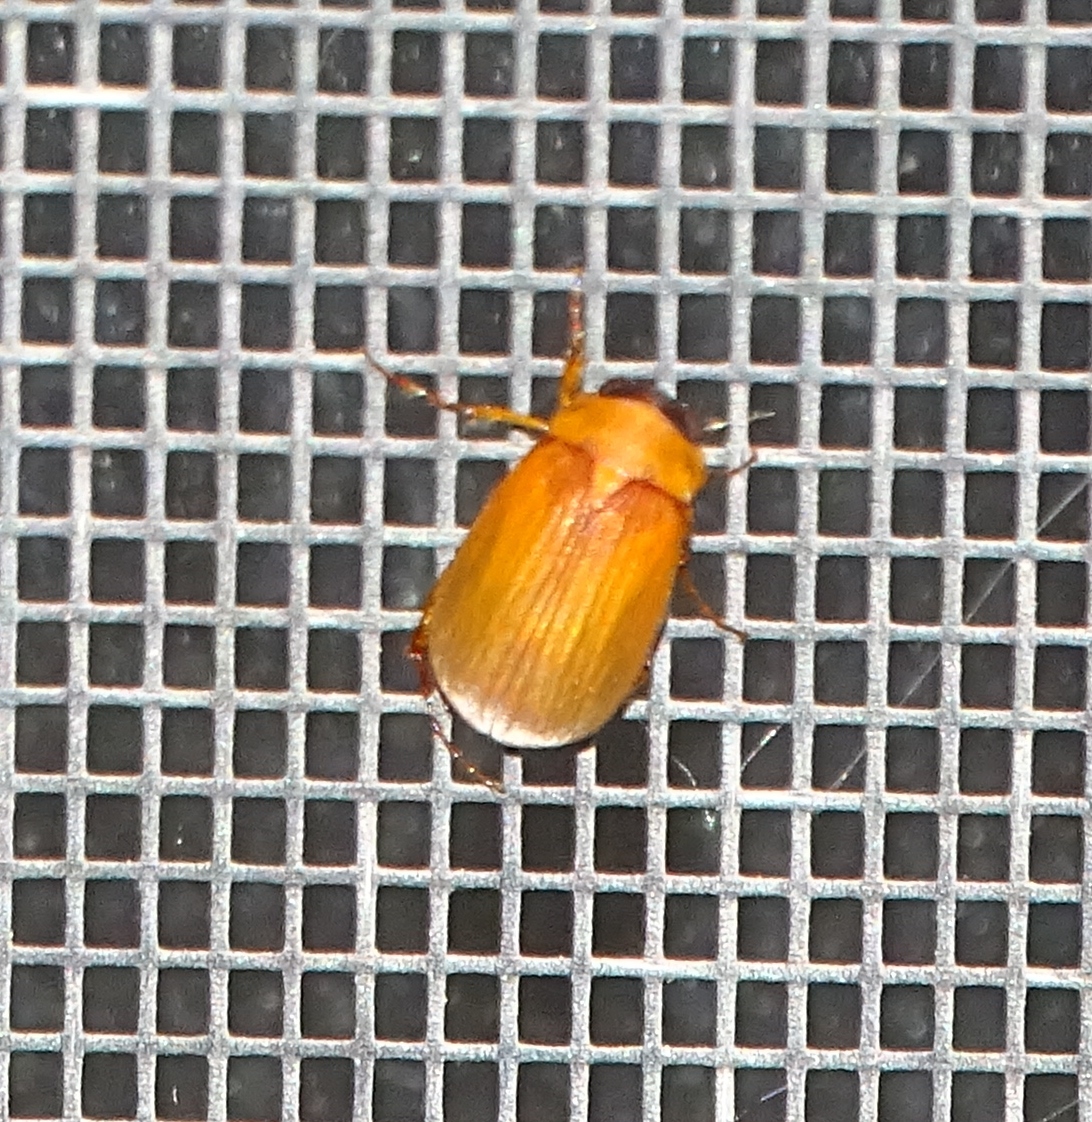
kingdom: Animalia
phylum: Arthropoda
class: Insecta
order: Coleoptera
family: Scarabaeidae
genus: Nipponoserica
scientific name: Nipponoserica peregrina
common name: Scarab beetle
